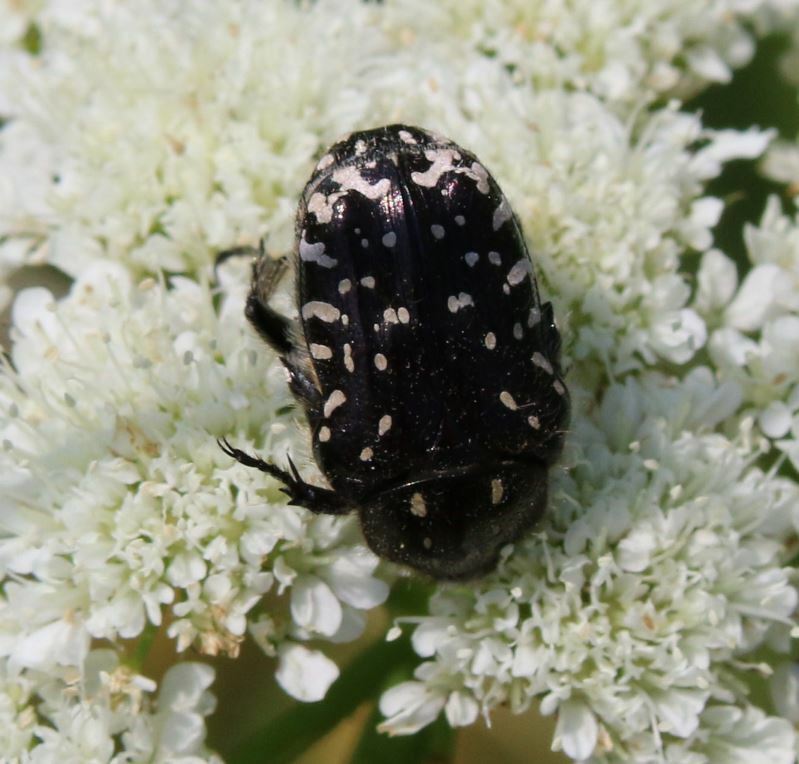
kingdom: Animalia
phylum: Arthropoda
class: Insecta
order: Coleoptera
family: Scarabaeidae
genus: Oxythyrea
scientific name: Oxythyrea funesta
